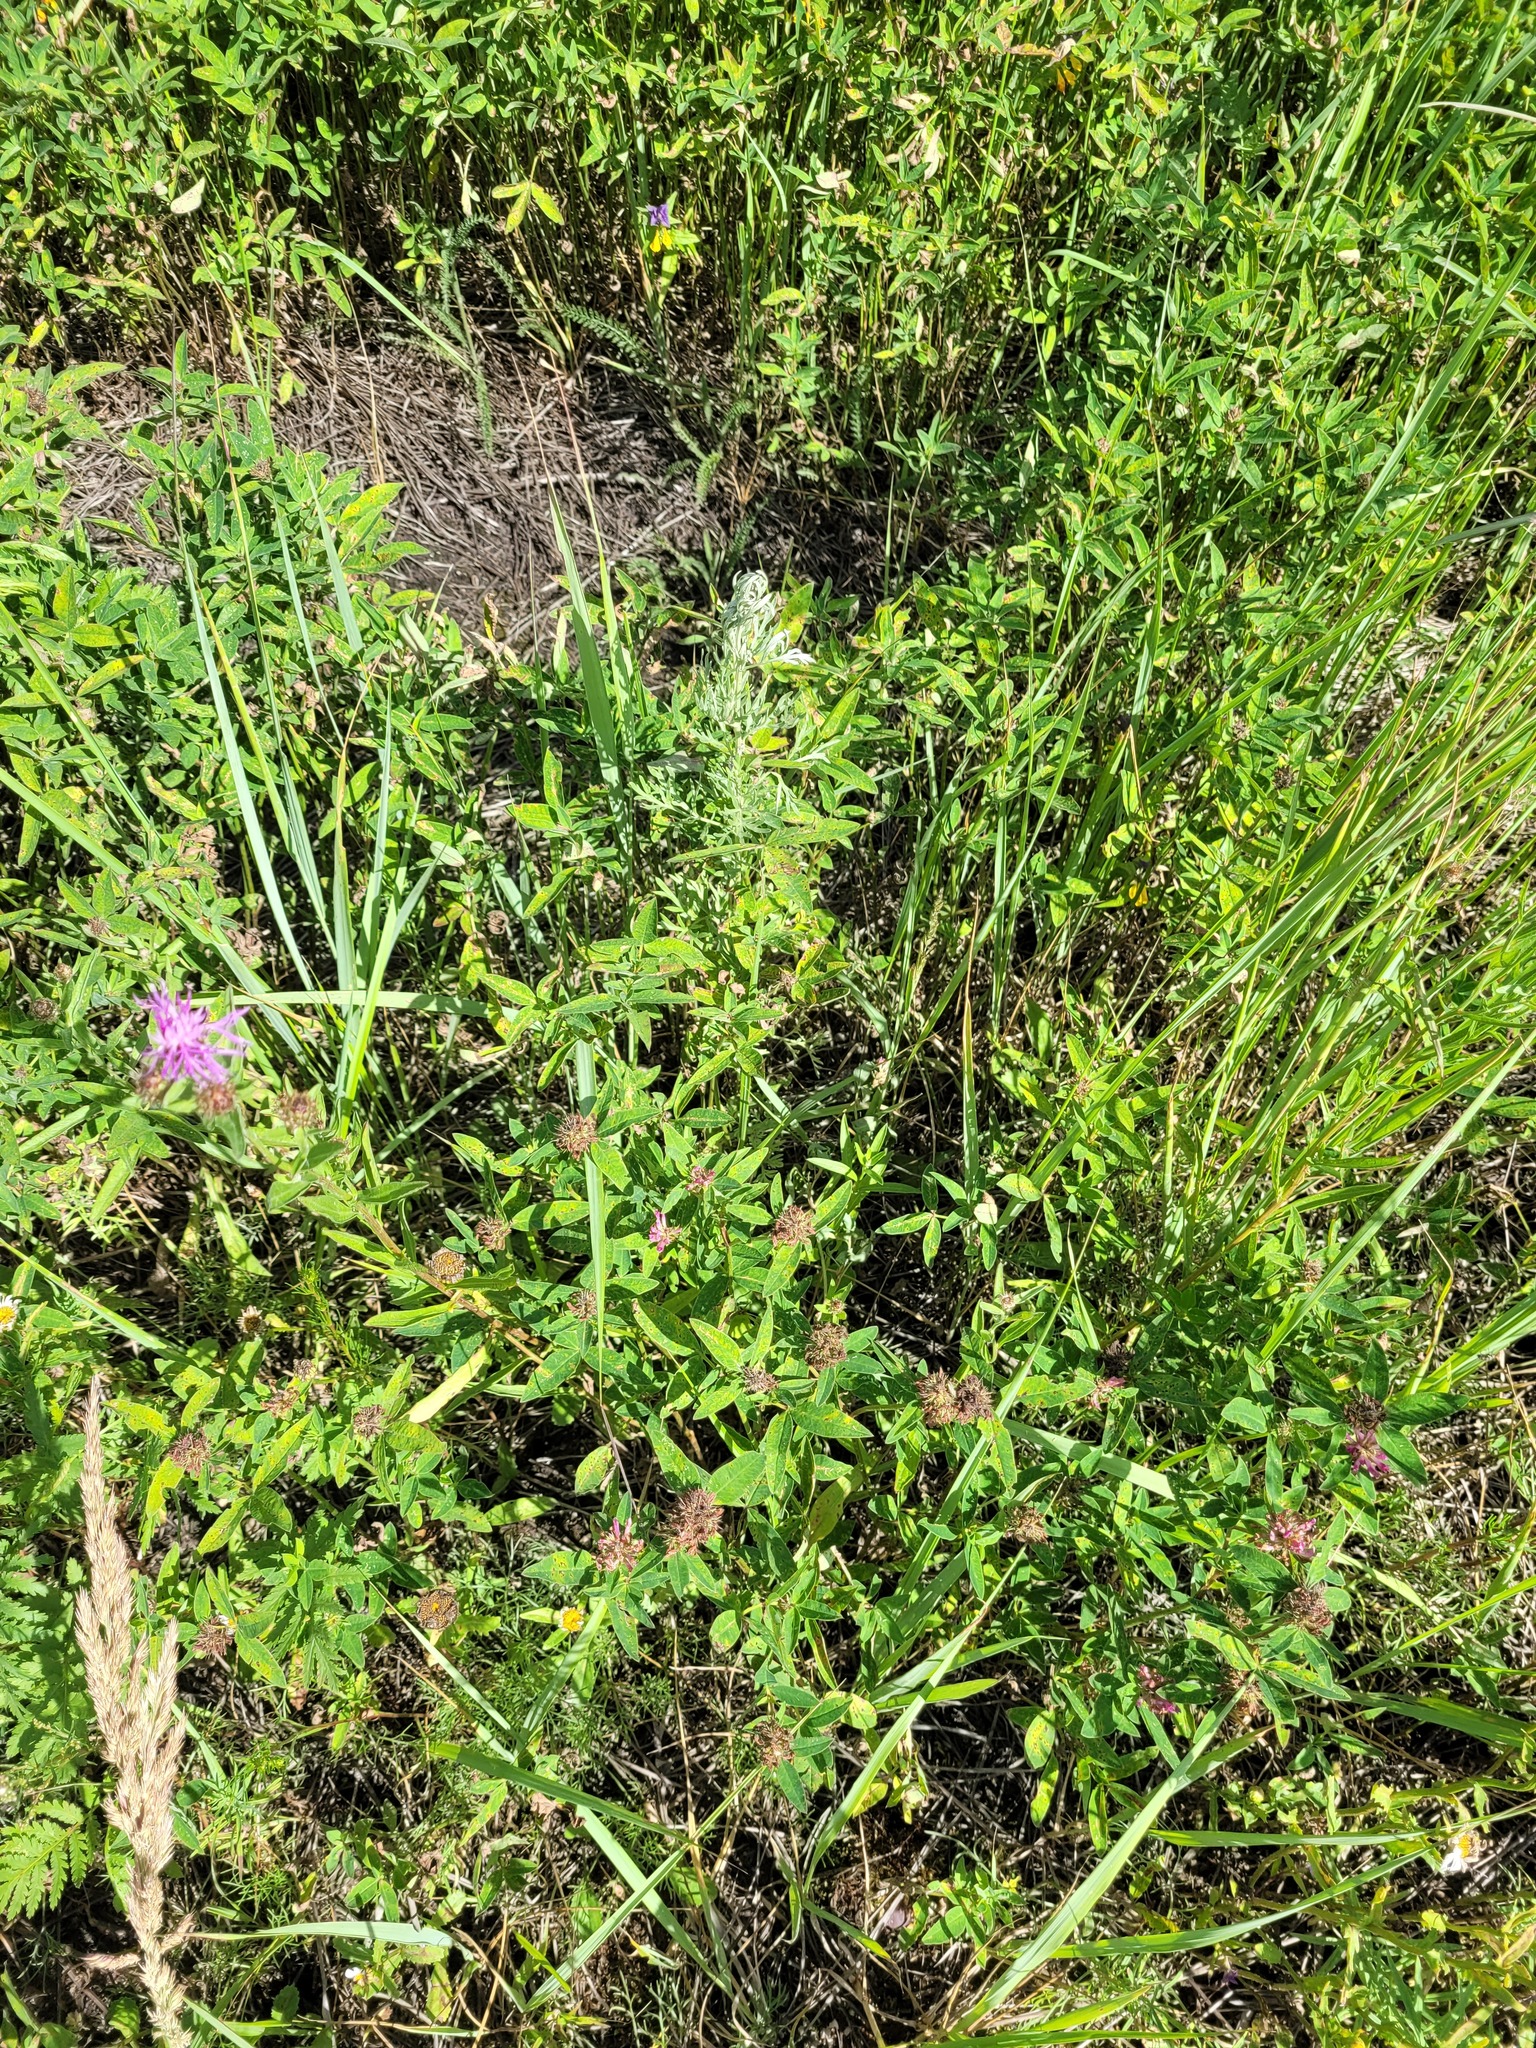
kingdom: Plantae
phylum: Tracheophyta
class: Magnoliopsida
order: Fabales
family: Fabaceae
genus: Trifolium
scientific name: Trifolium medium
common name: Zigzag clover
